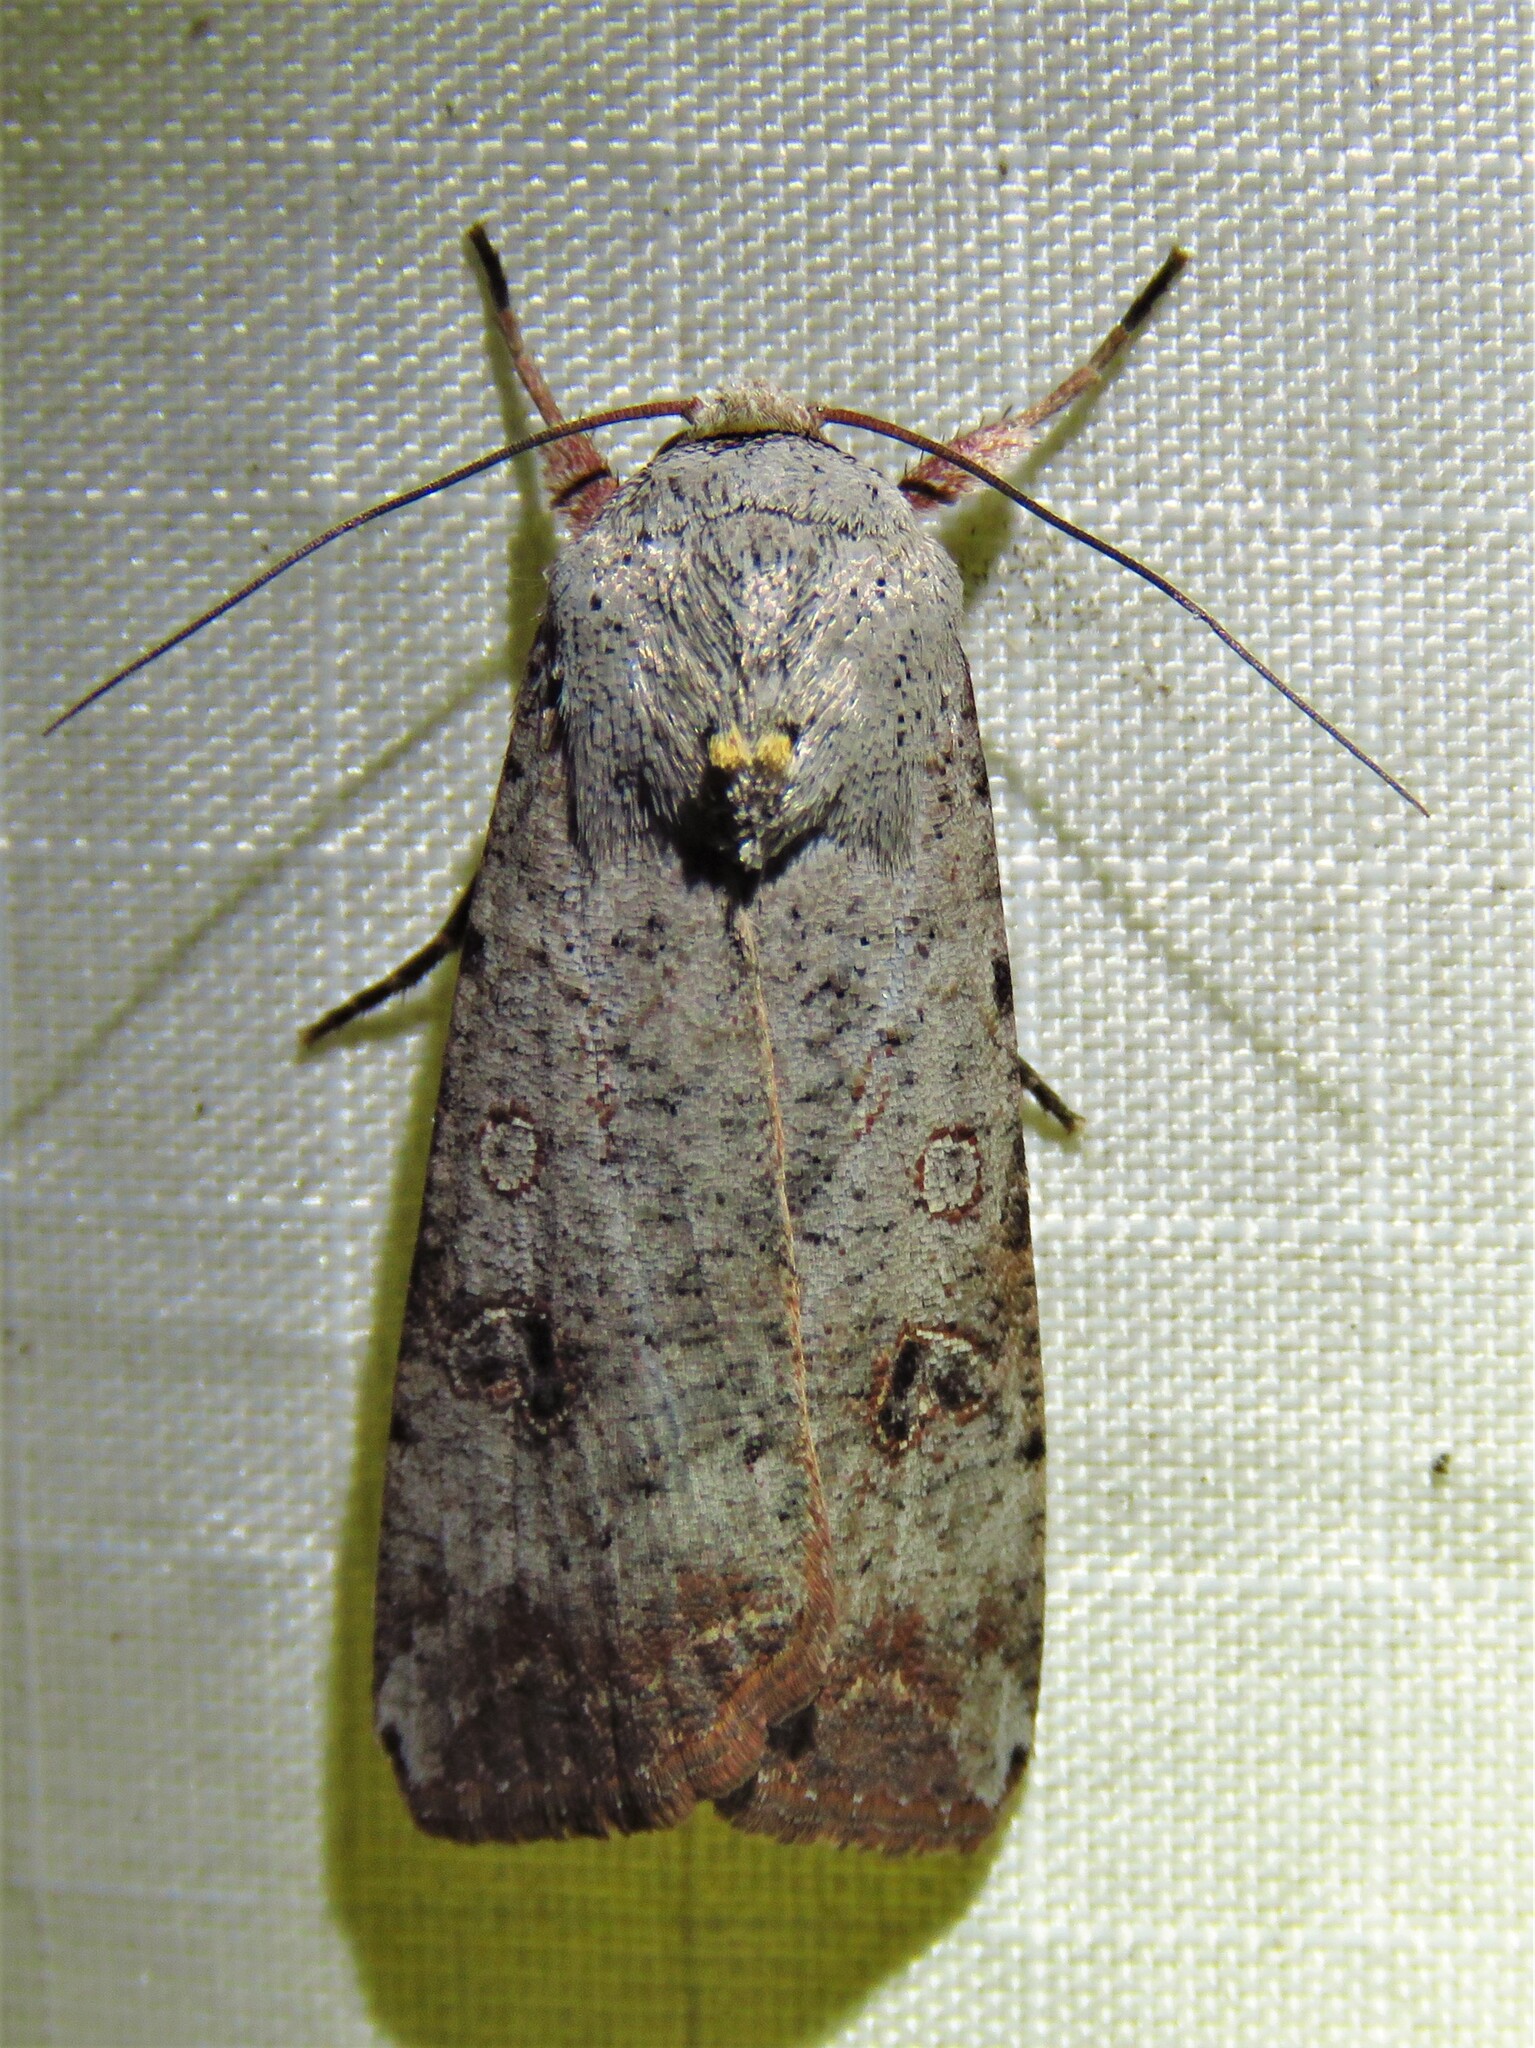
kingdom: Animalia
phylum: Arthropoda
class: Insecta
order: Lepidoptera
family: Noctuidae
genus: Anicla
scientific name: Anicla infecta
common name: Green cutworm
